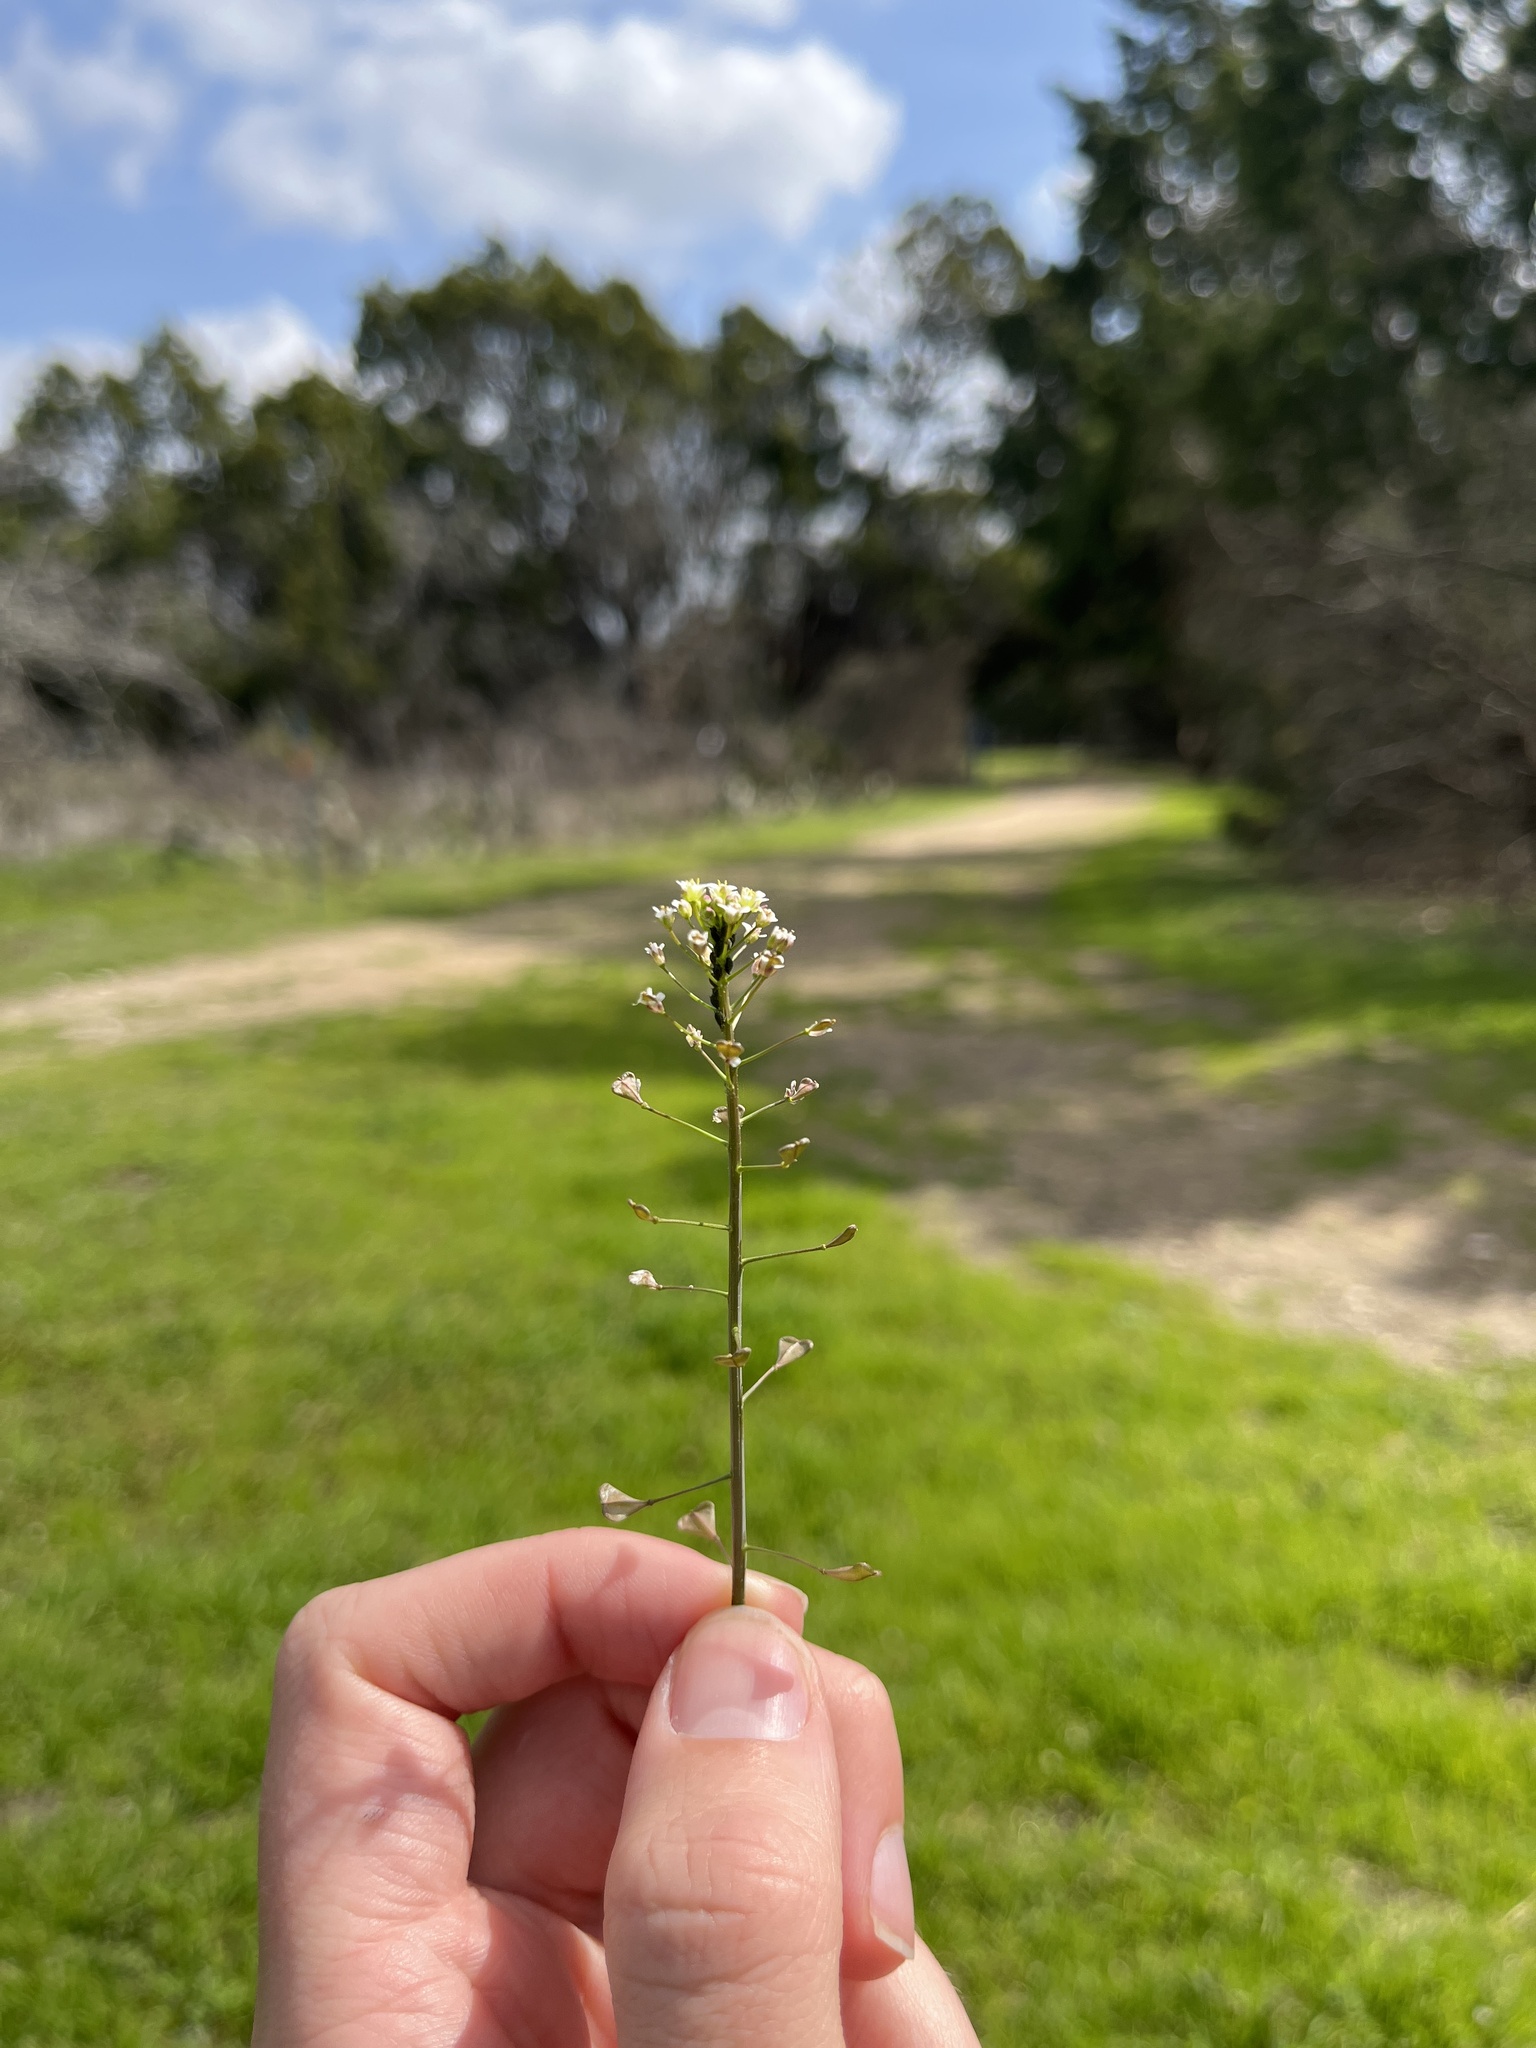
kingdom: Plantae
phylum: Tracheophyta
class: Magnoliopsida
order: Brassicales
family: Brassicaceae
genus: Capsella
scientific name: Capsella bursa-pastoris
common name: Shepherd's purse
